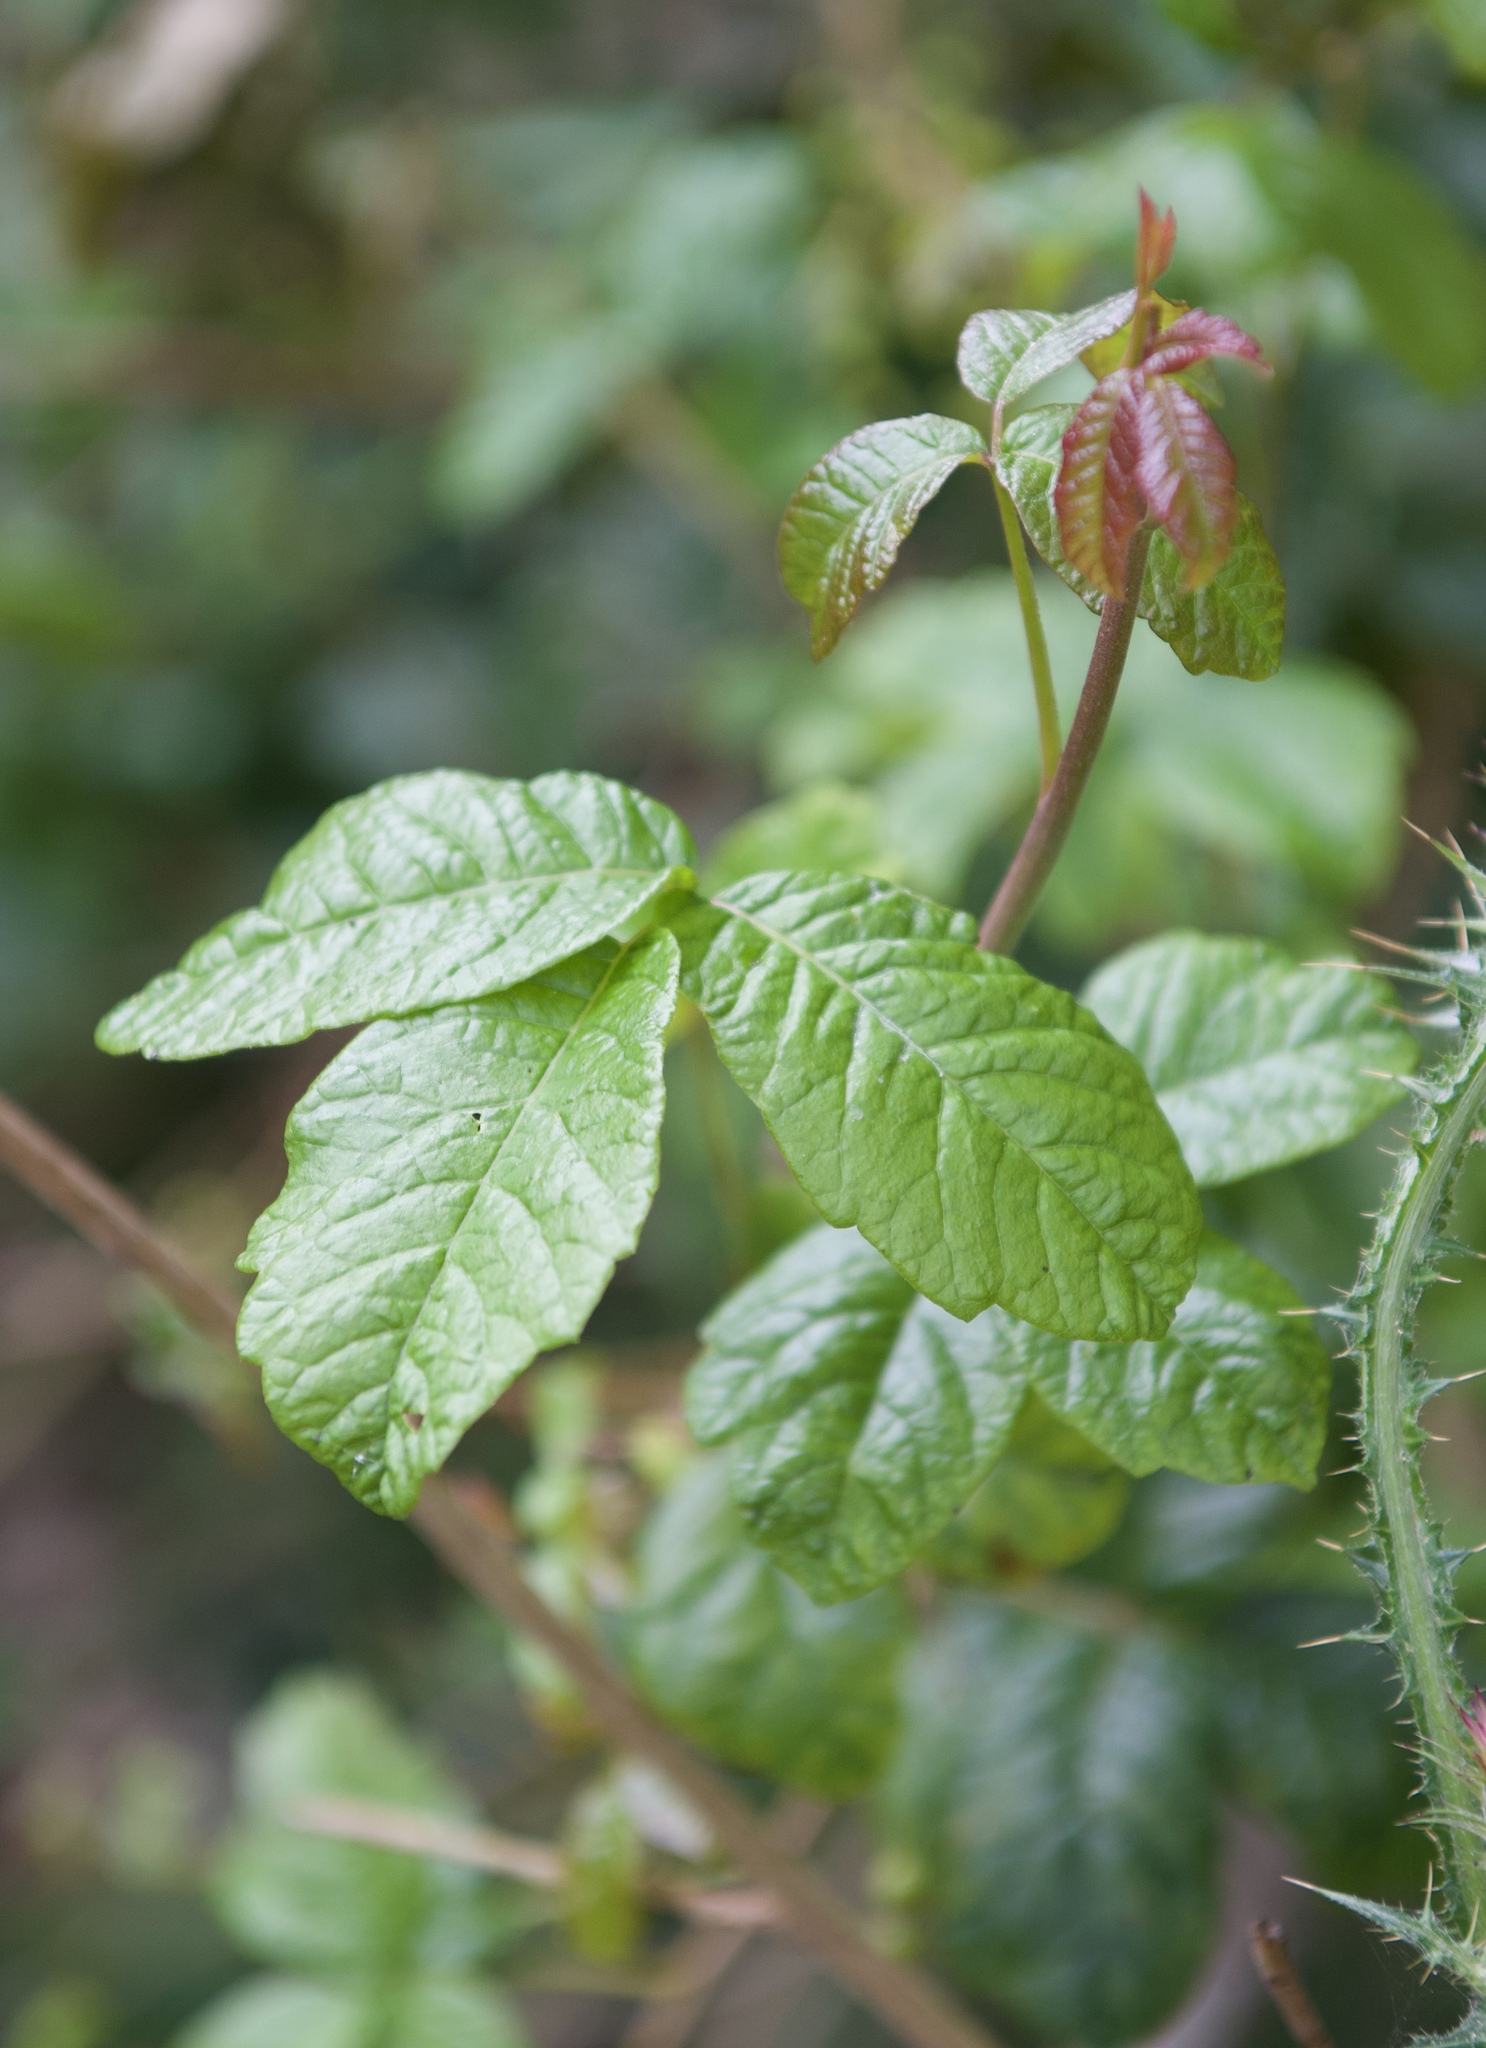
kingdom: Plantae
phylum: Tracheophyta
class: Magnoliopsida
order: Sapindales
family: Anacardiaceae
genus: Toxicodendron
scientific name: Toxicodendron diversilobum
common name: Pacific poison-oak
